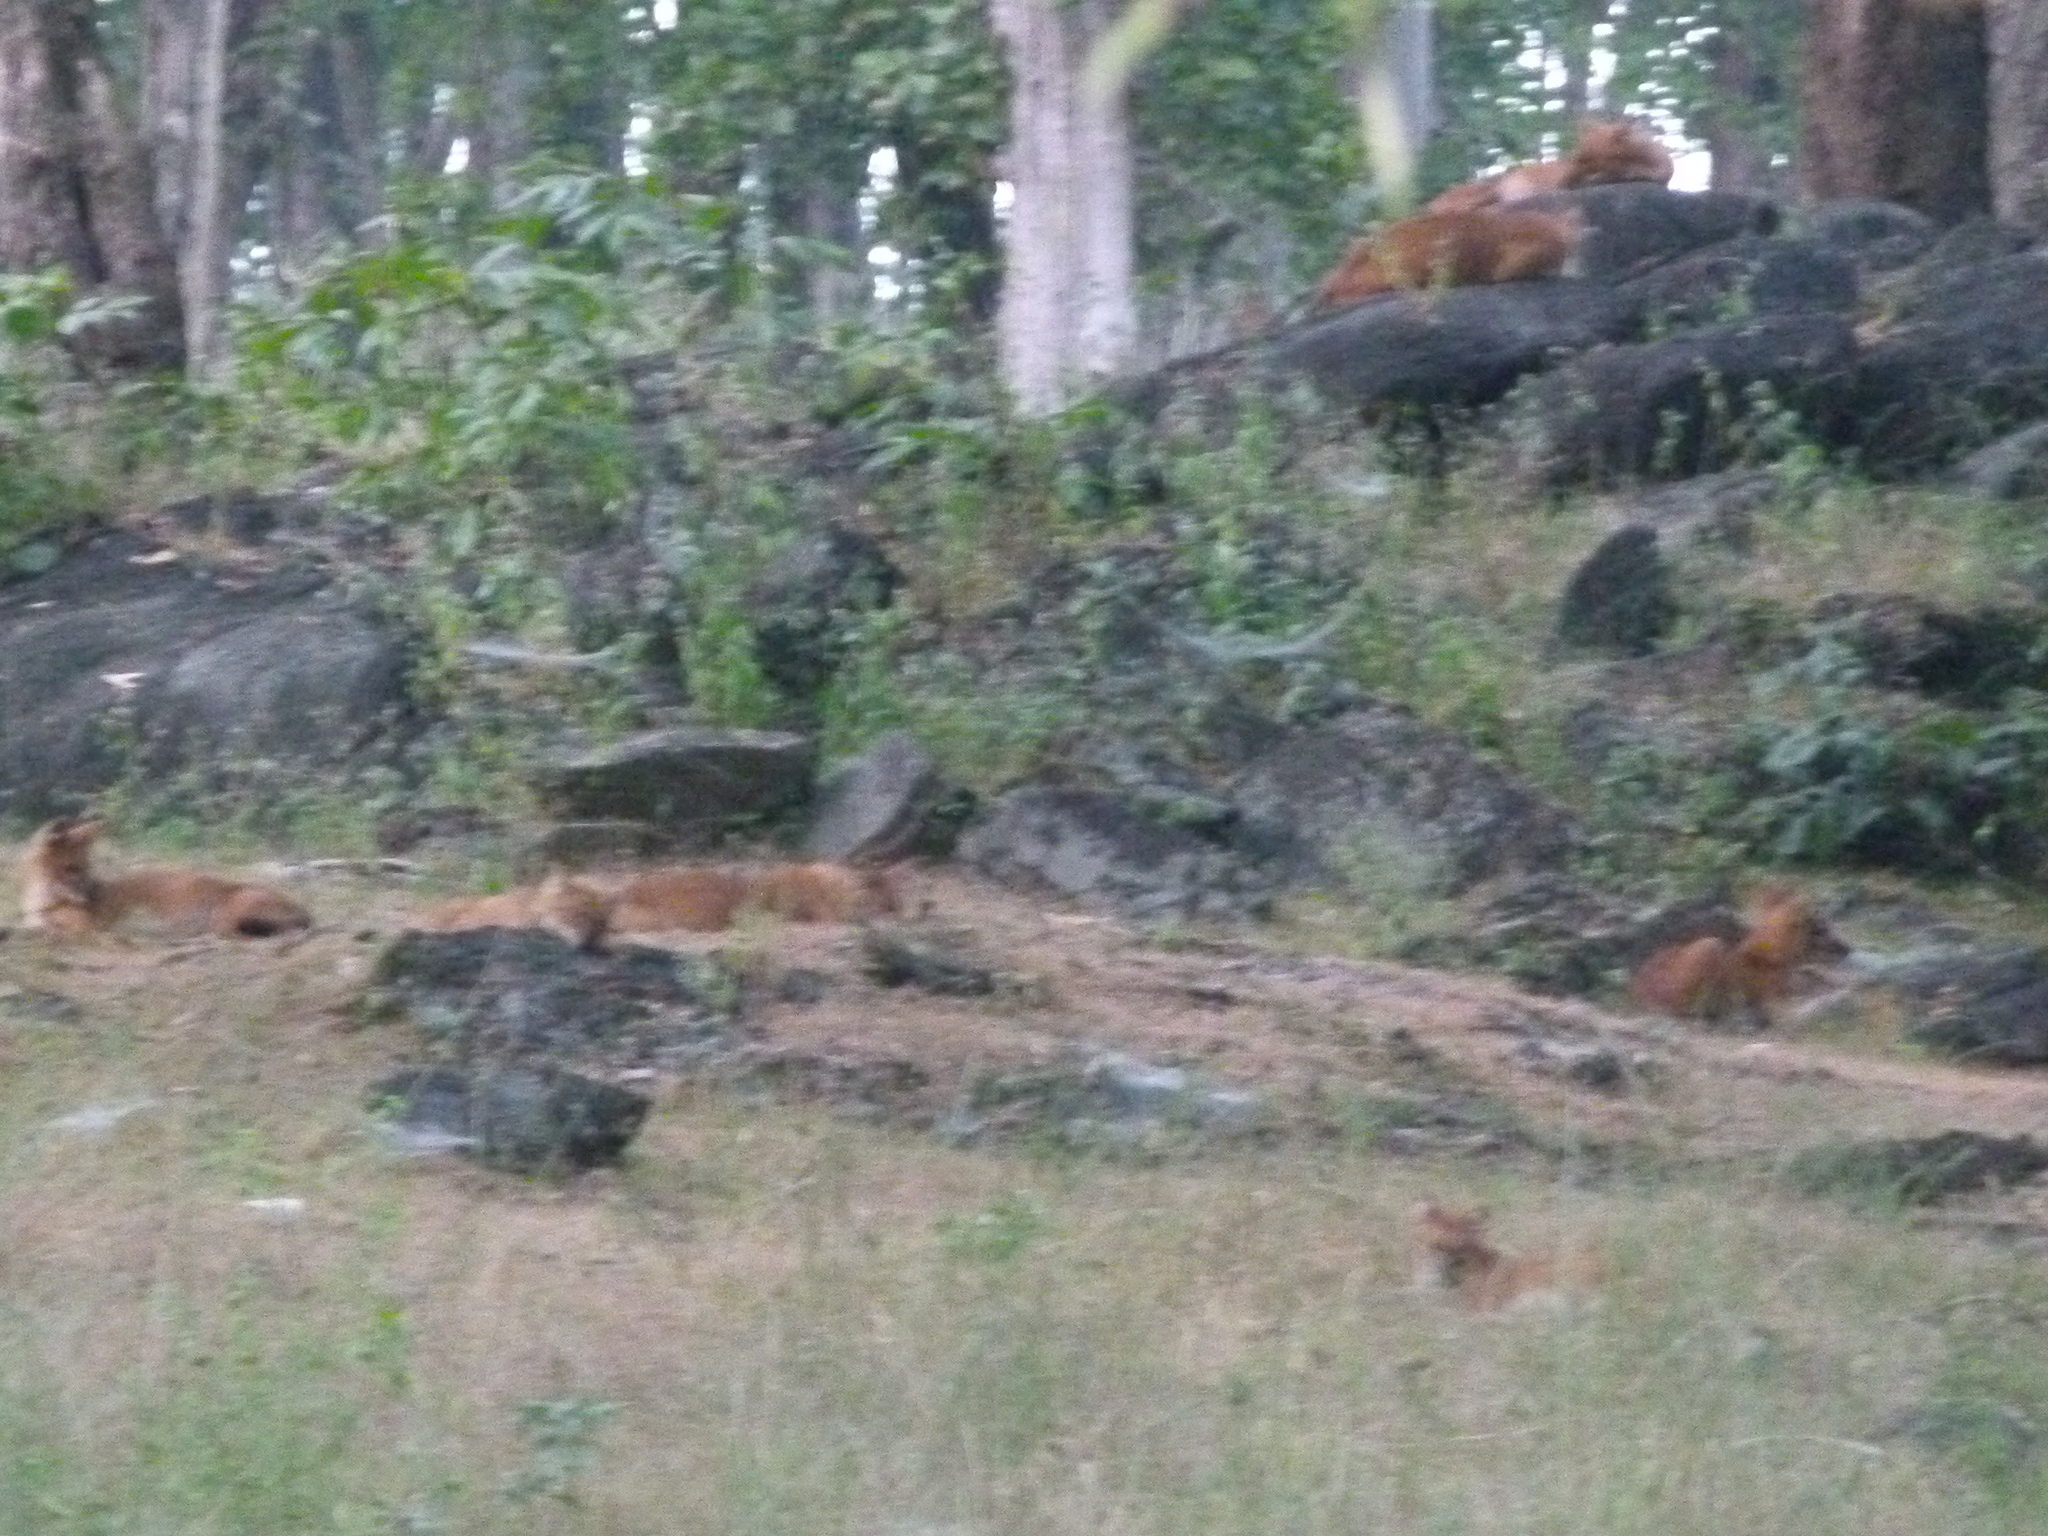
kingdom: Animalia
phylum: Chordata
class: Mammalia
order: Carnivora
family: Canidae
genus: Cuon
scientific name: Cuon alpinus
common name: Dhole
